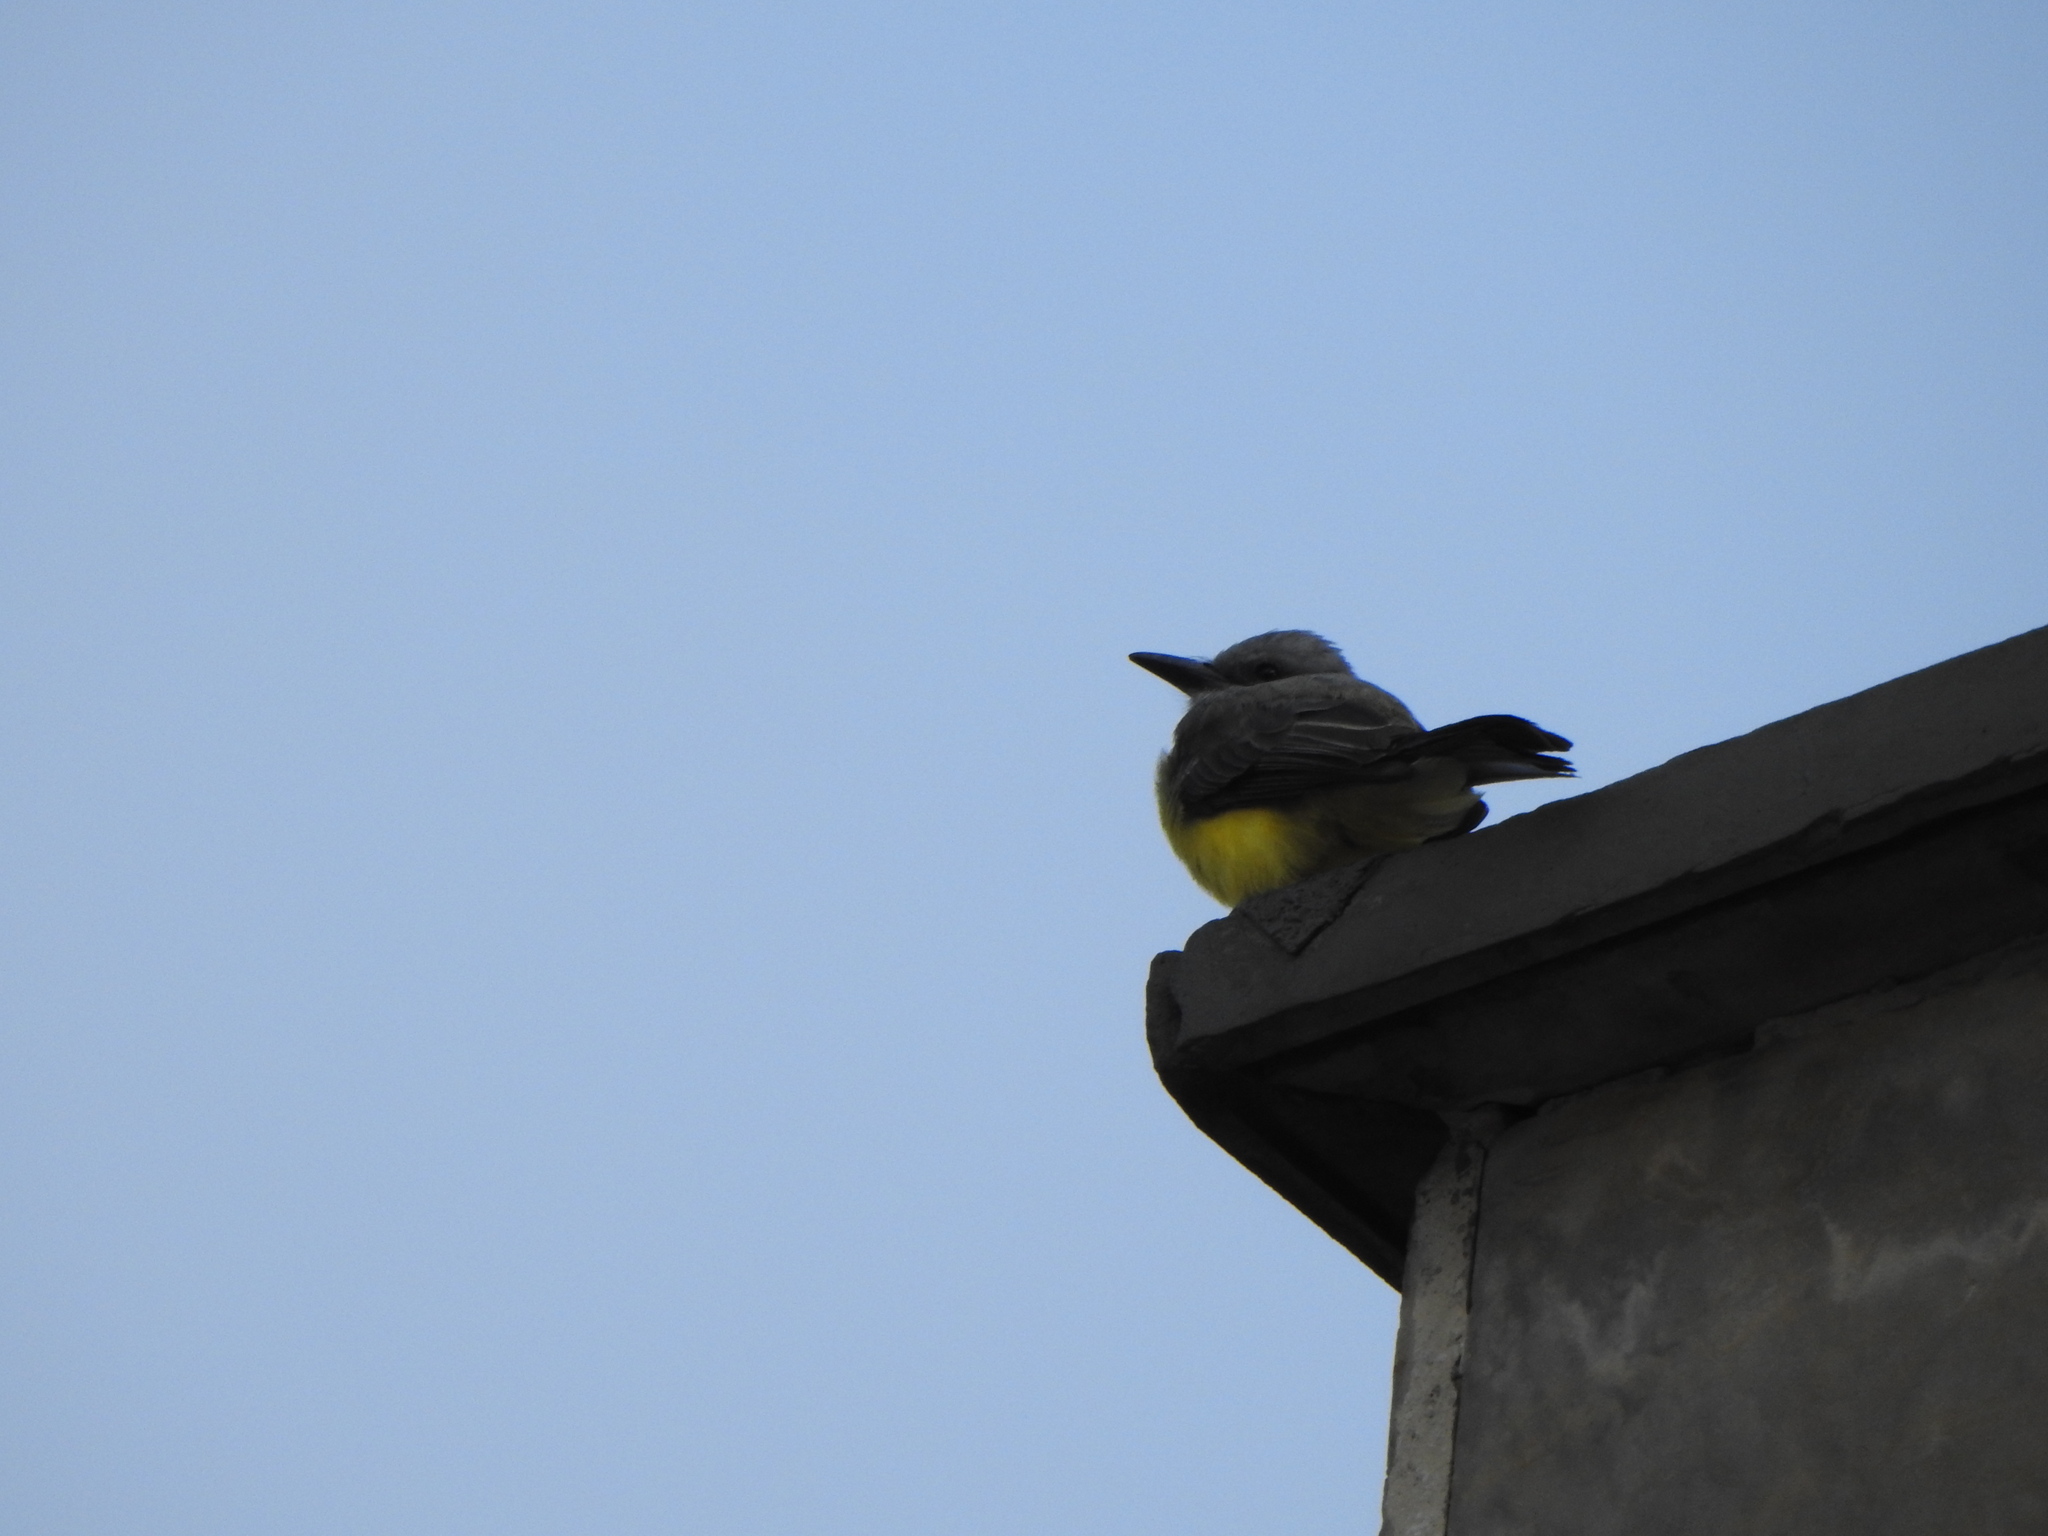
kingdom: Animalia
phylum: Chordata
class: Aves
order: Passeriformes
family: Tyrannidae
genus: Tyrannus
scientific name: Tyrannus melancholicus
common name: Tropical kingbird
